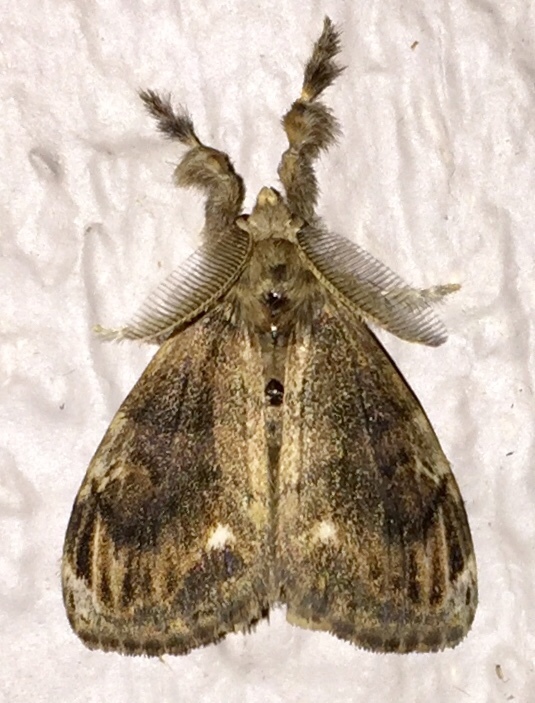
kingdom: Animalia
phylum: Arthropoda
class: Insecta
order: Lepidoptera
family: Erebidae
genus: Orgyia
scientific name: Orgyia definita
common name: Definite tussock moth
